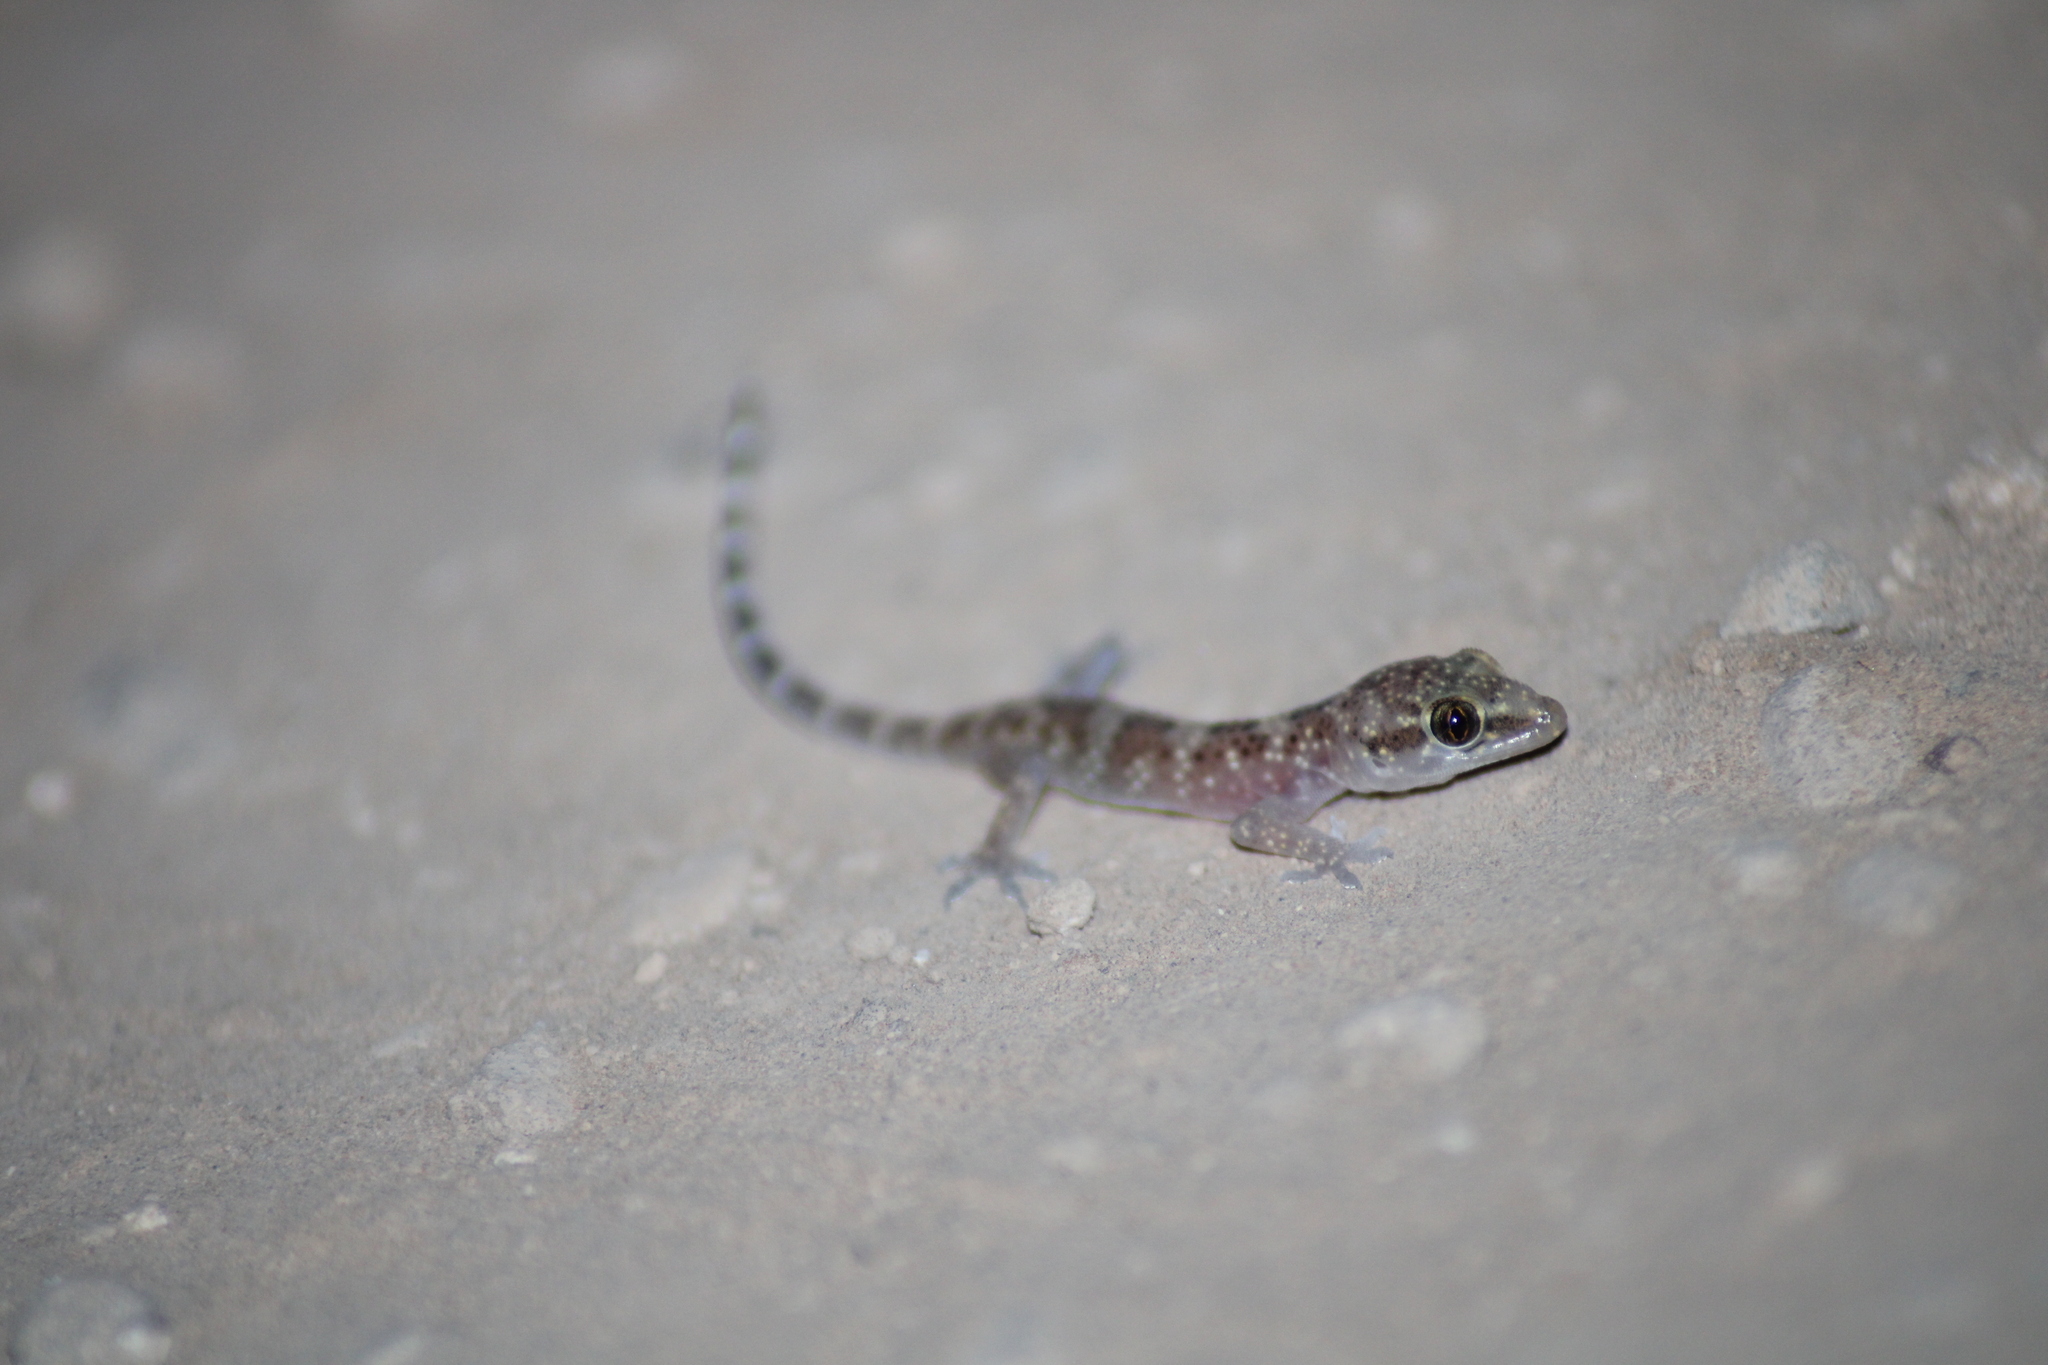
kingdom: Animalia
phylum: Chordata
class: Squamata
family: Gekkonidae
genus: Hemidactylus
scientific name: Hemidactylus turcicus
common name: Turkish gecko
